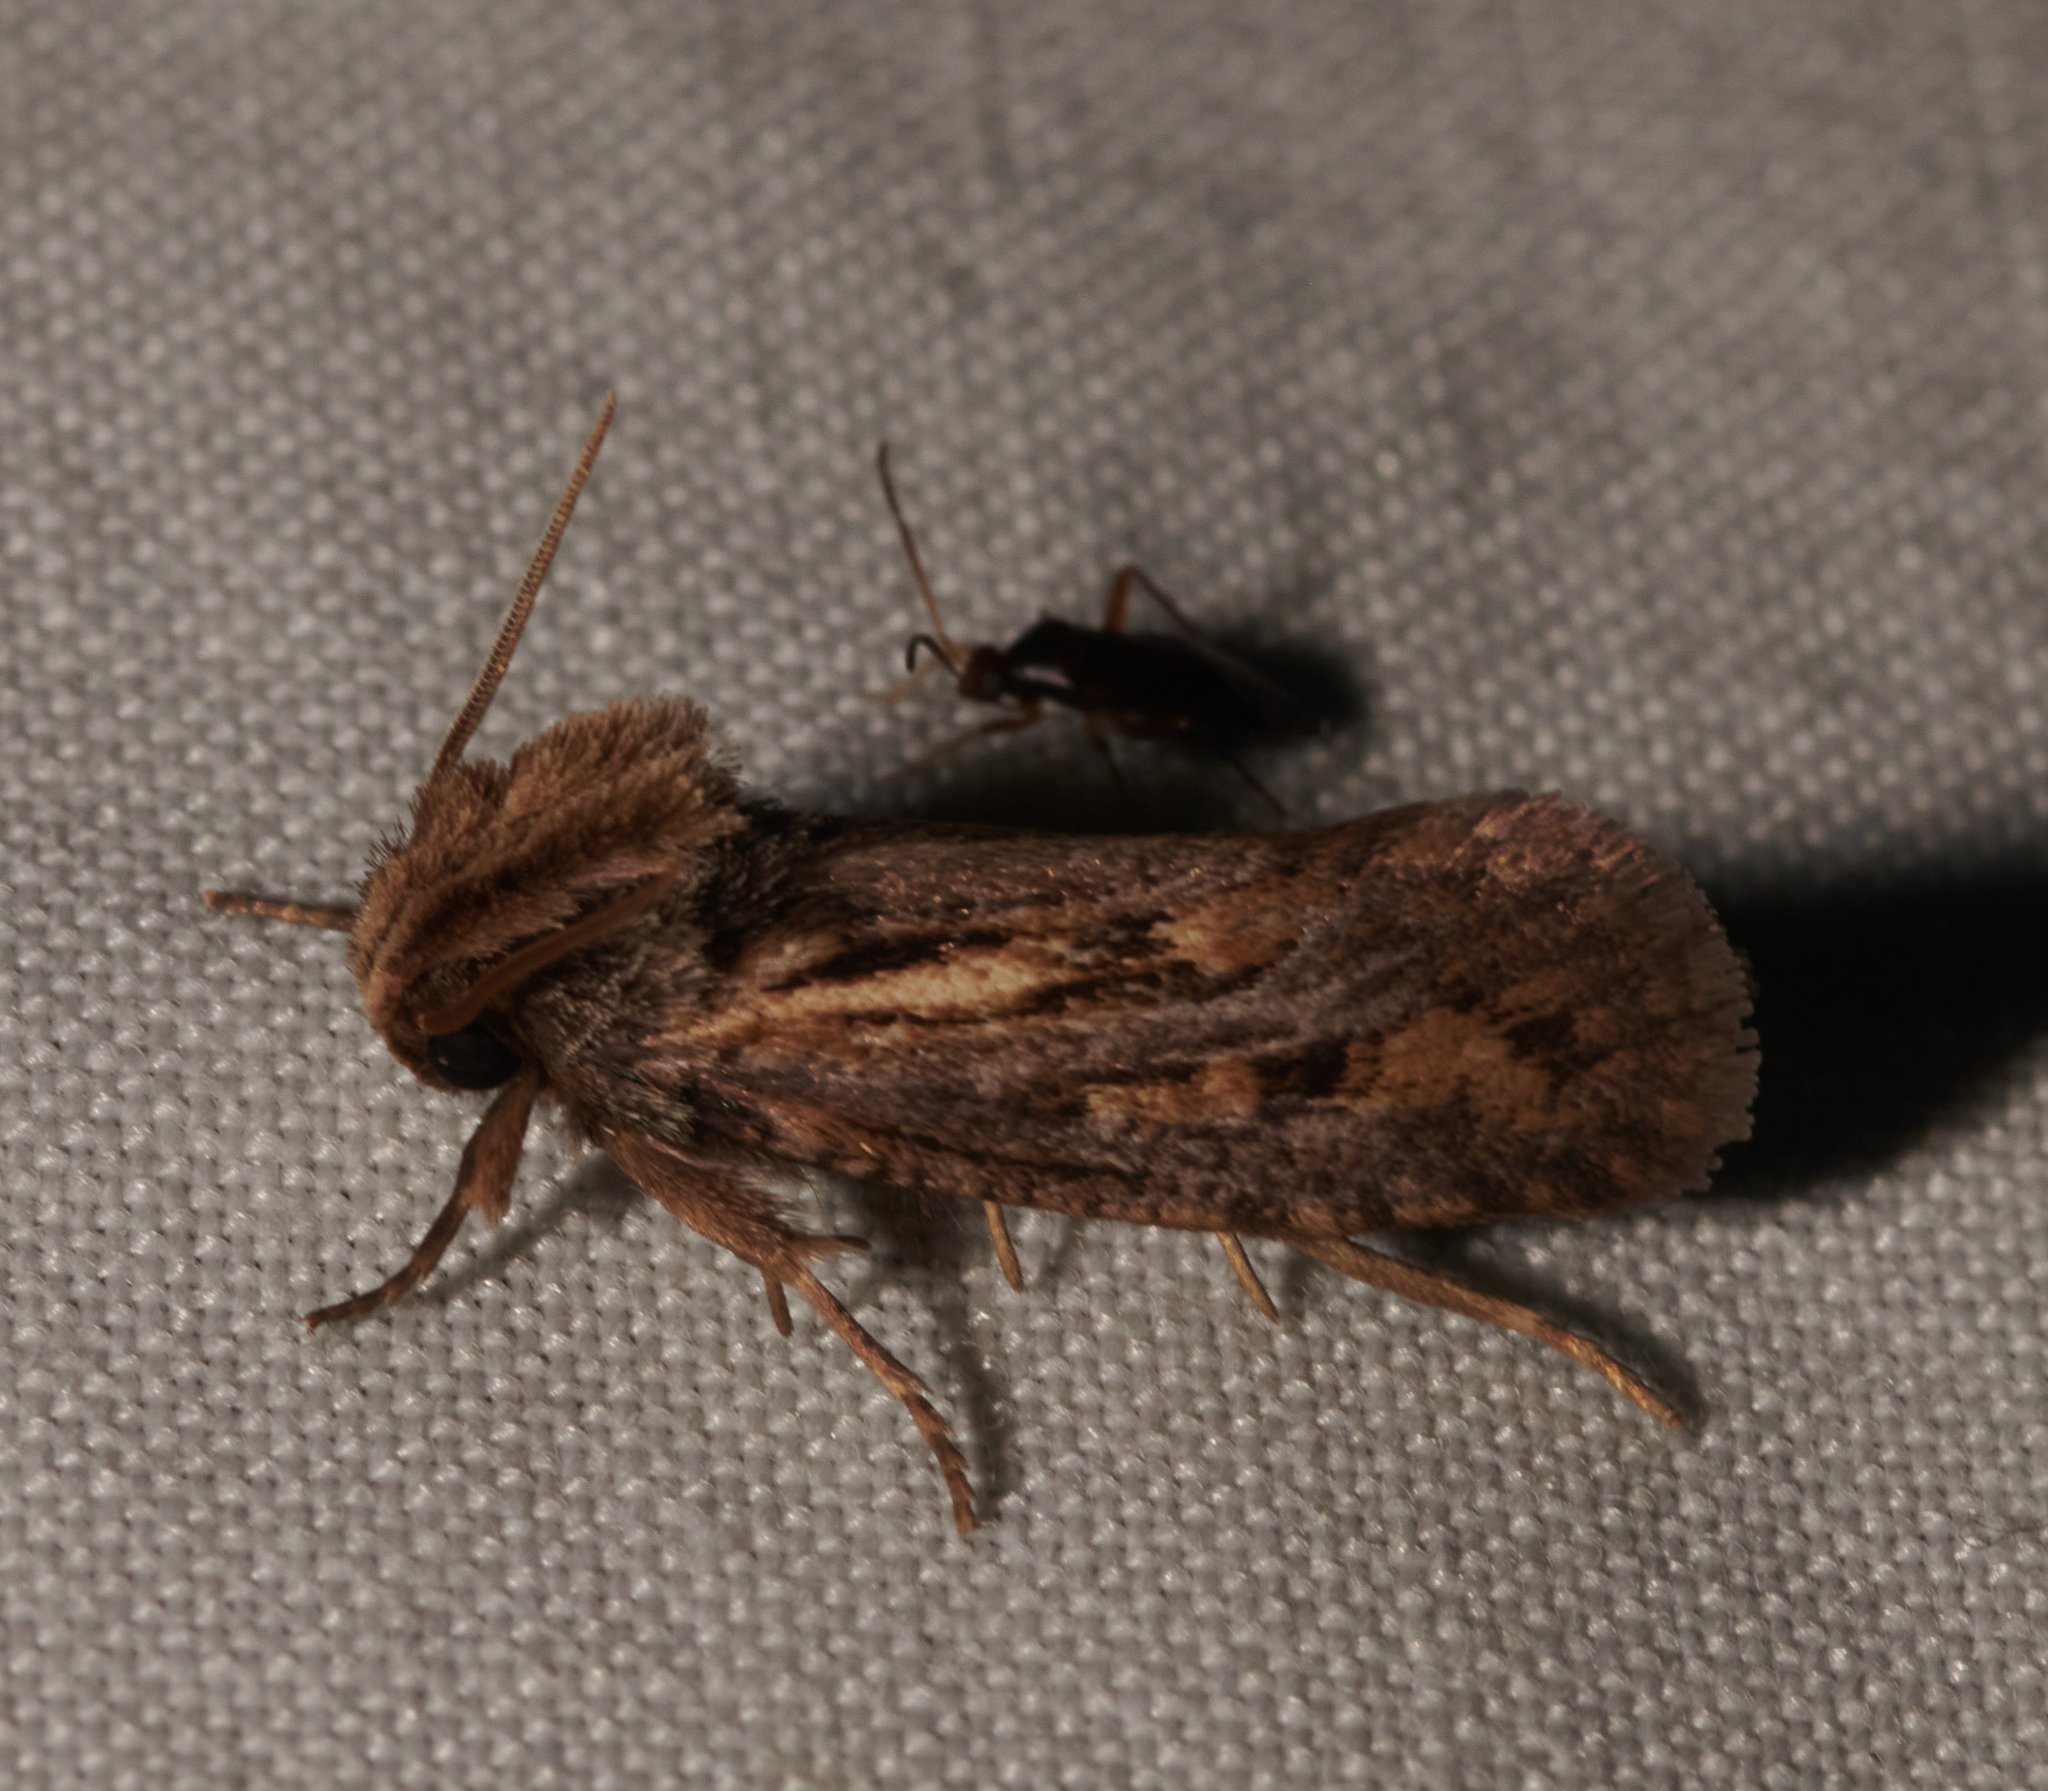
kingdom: Animalia
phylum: Arthropoda
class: Insecta
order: Lepidoptera
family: Tineidae
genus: Acrolophus
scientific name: Acrolophus popeanella
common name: Clemens' grass tubeworm moth
